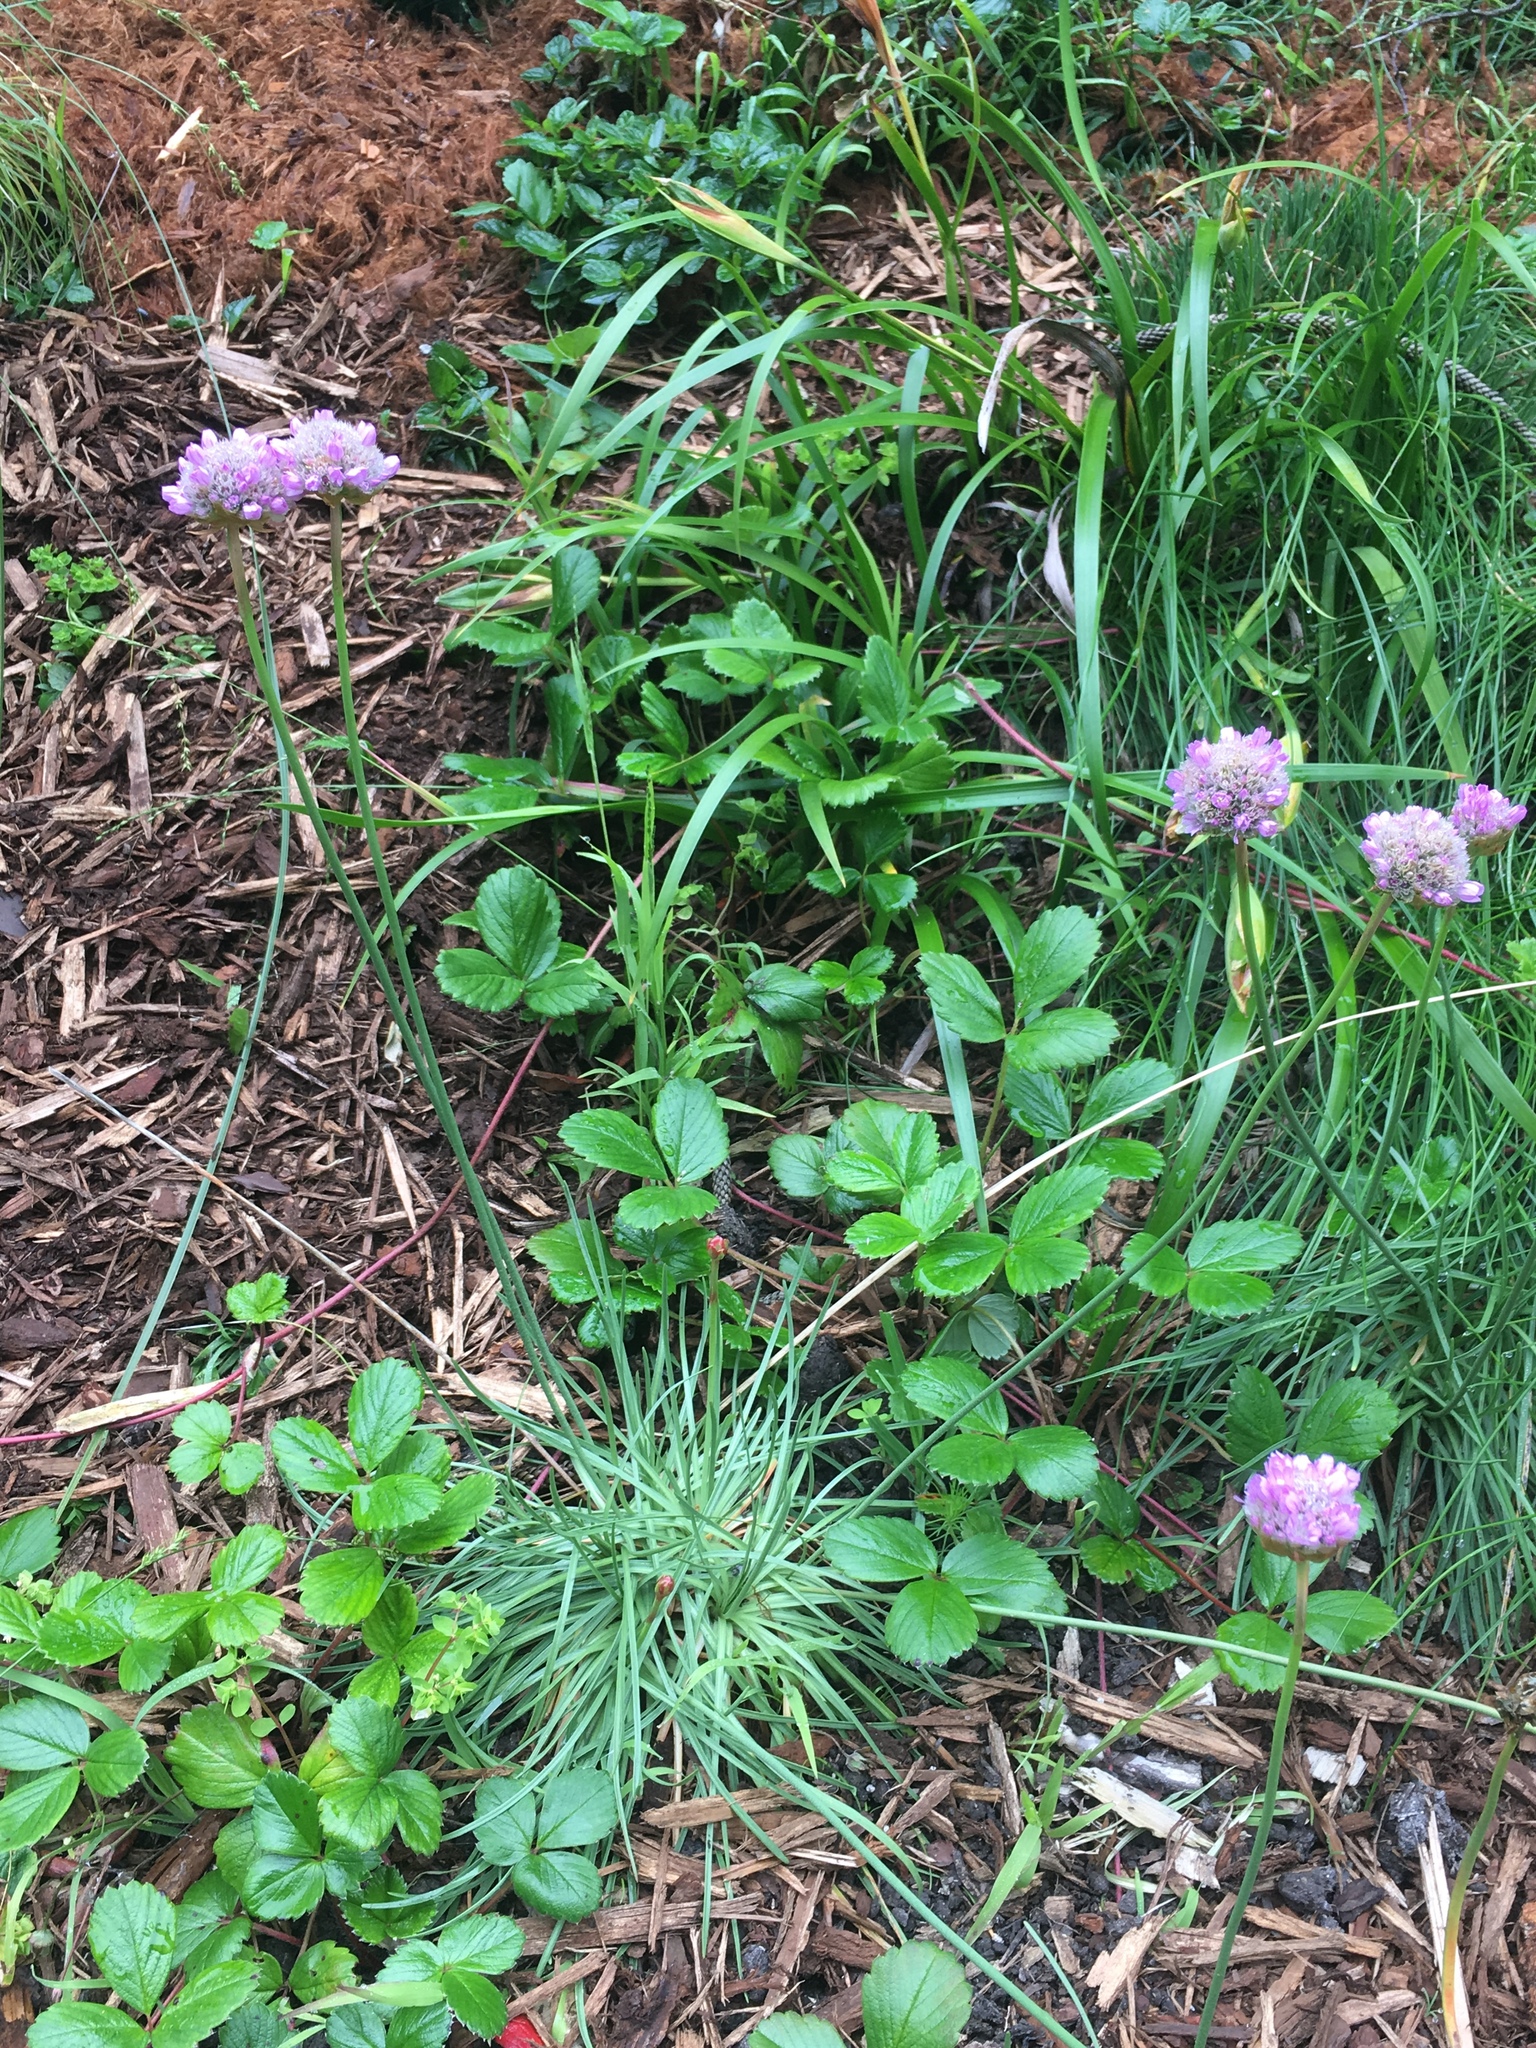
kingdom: Plantae
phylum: Tracheophyta
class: Magnoliopsida
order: Caryophyllales
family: Plumbaginaceae
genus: Armeria
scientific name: Armeria maritima
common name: Thrift
